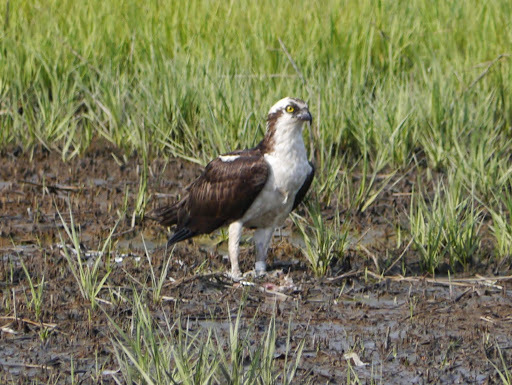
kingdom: Animalia
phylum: Chordata
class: Aves
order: Accipitriformes
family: Pandionidae
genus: Pandion
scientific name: Pandion haliaetus
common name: Osprey
